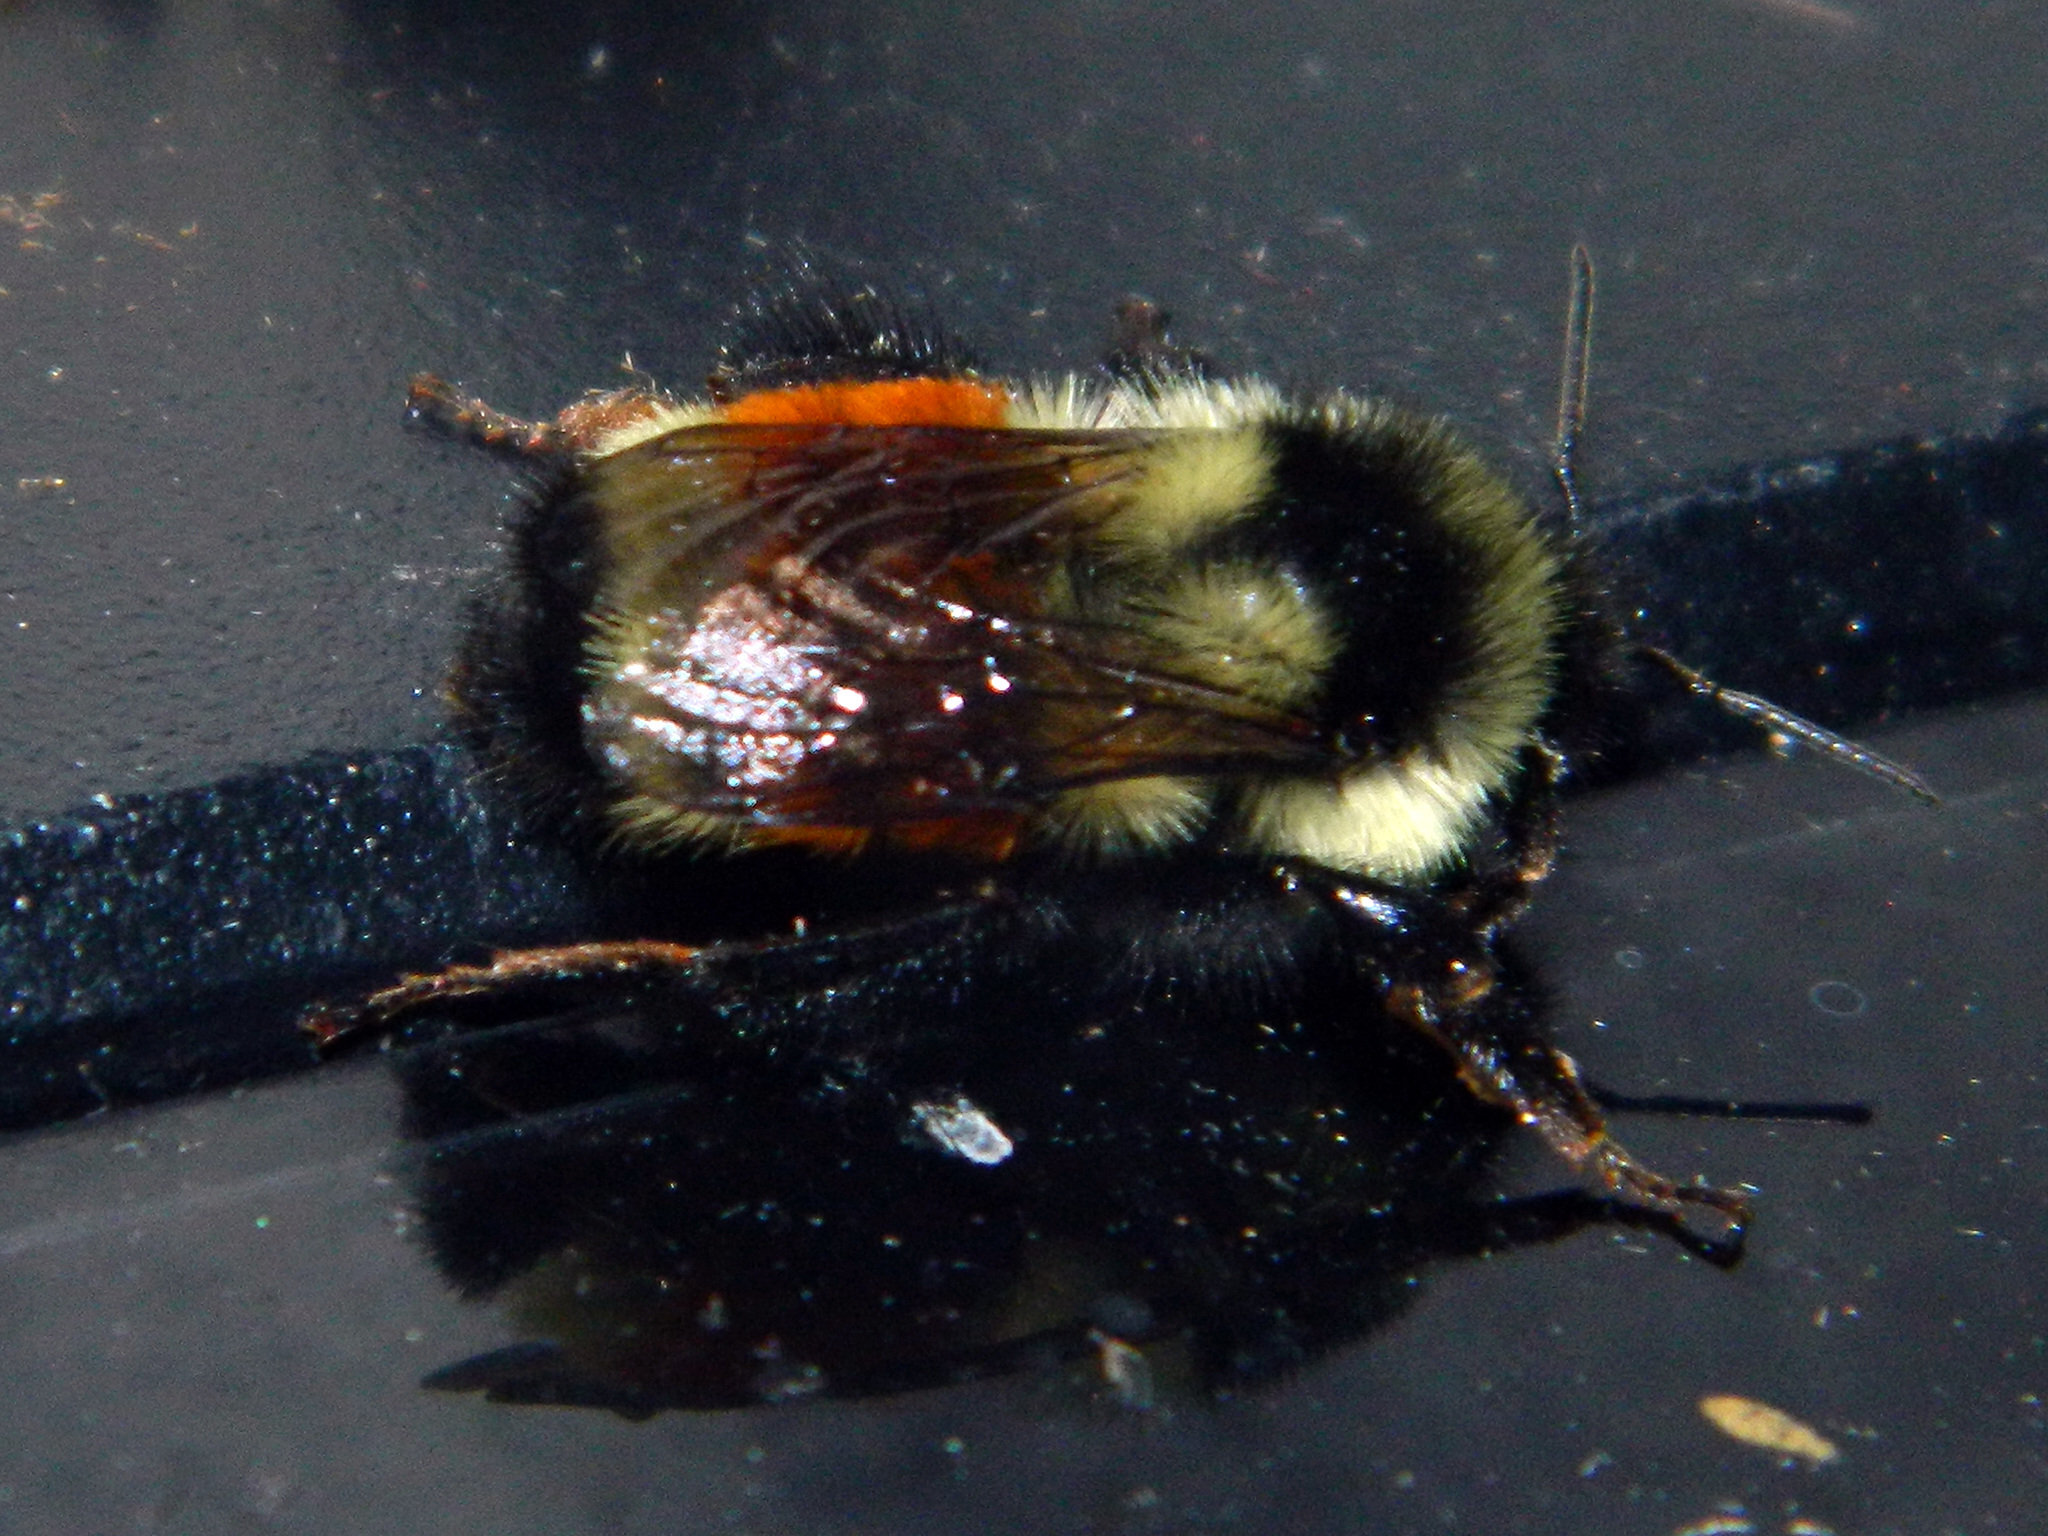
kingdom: Animalia
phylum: Arthropoda
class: Insecta
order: Hymenoptera
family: Apidae
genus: Bombus
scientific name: Bombus ternarius
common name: Tri-colored bumble bee
